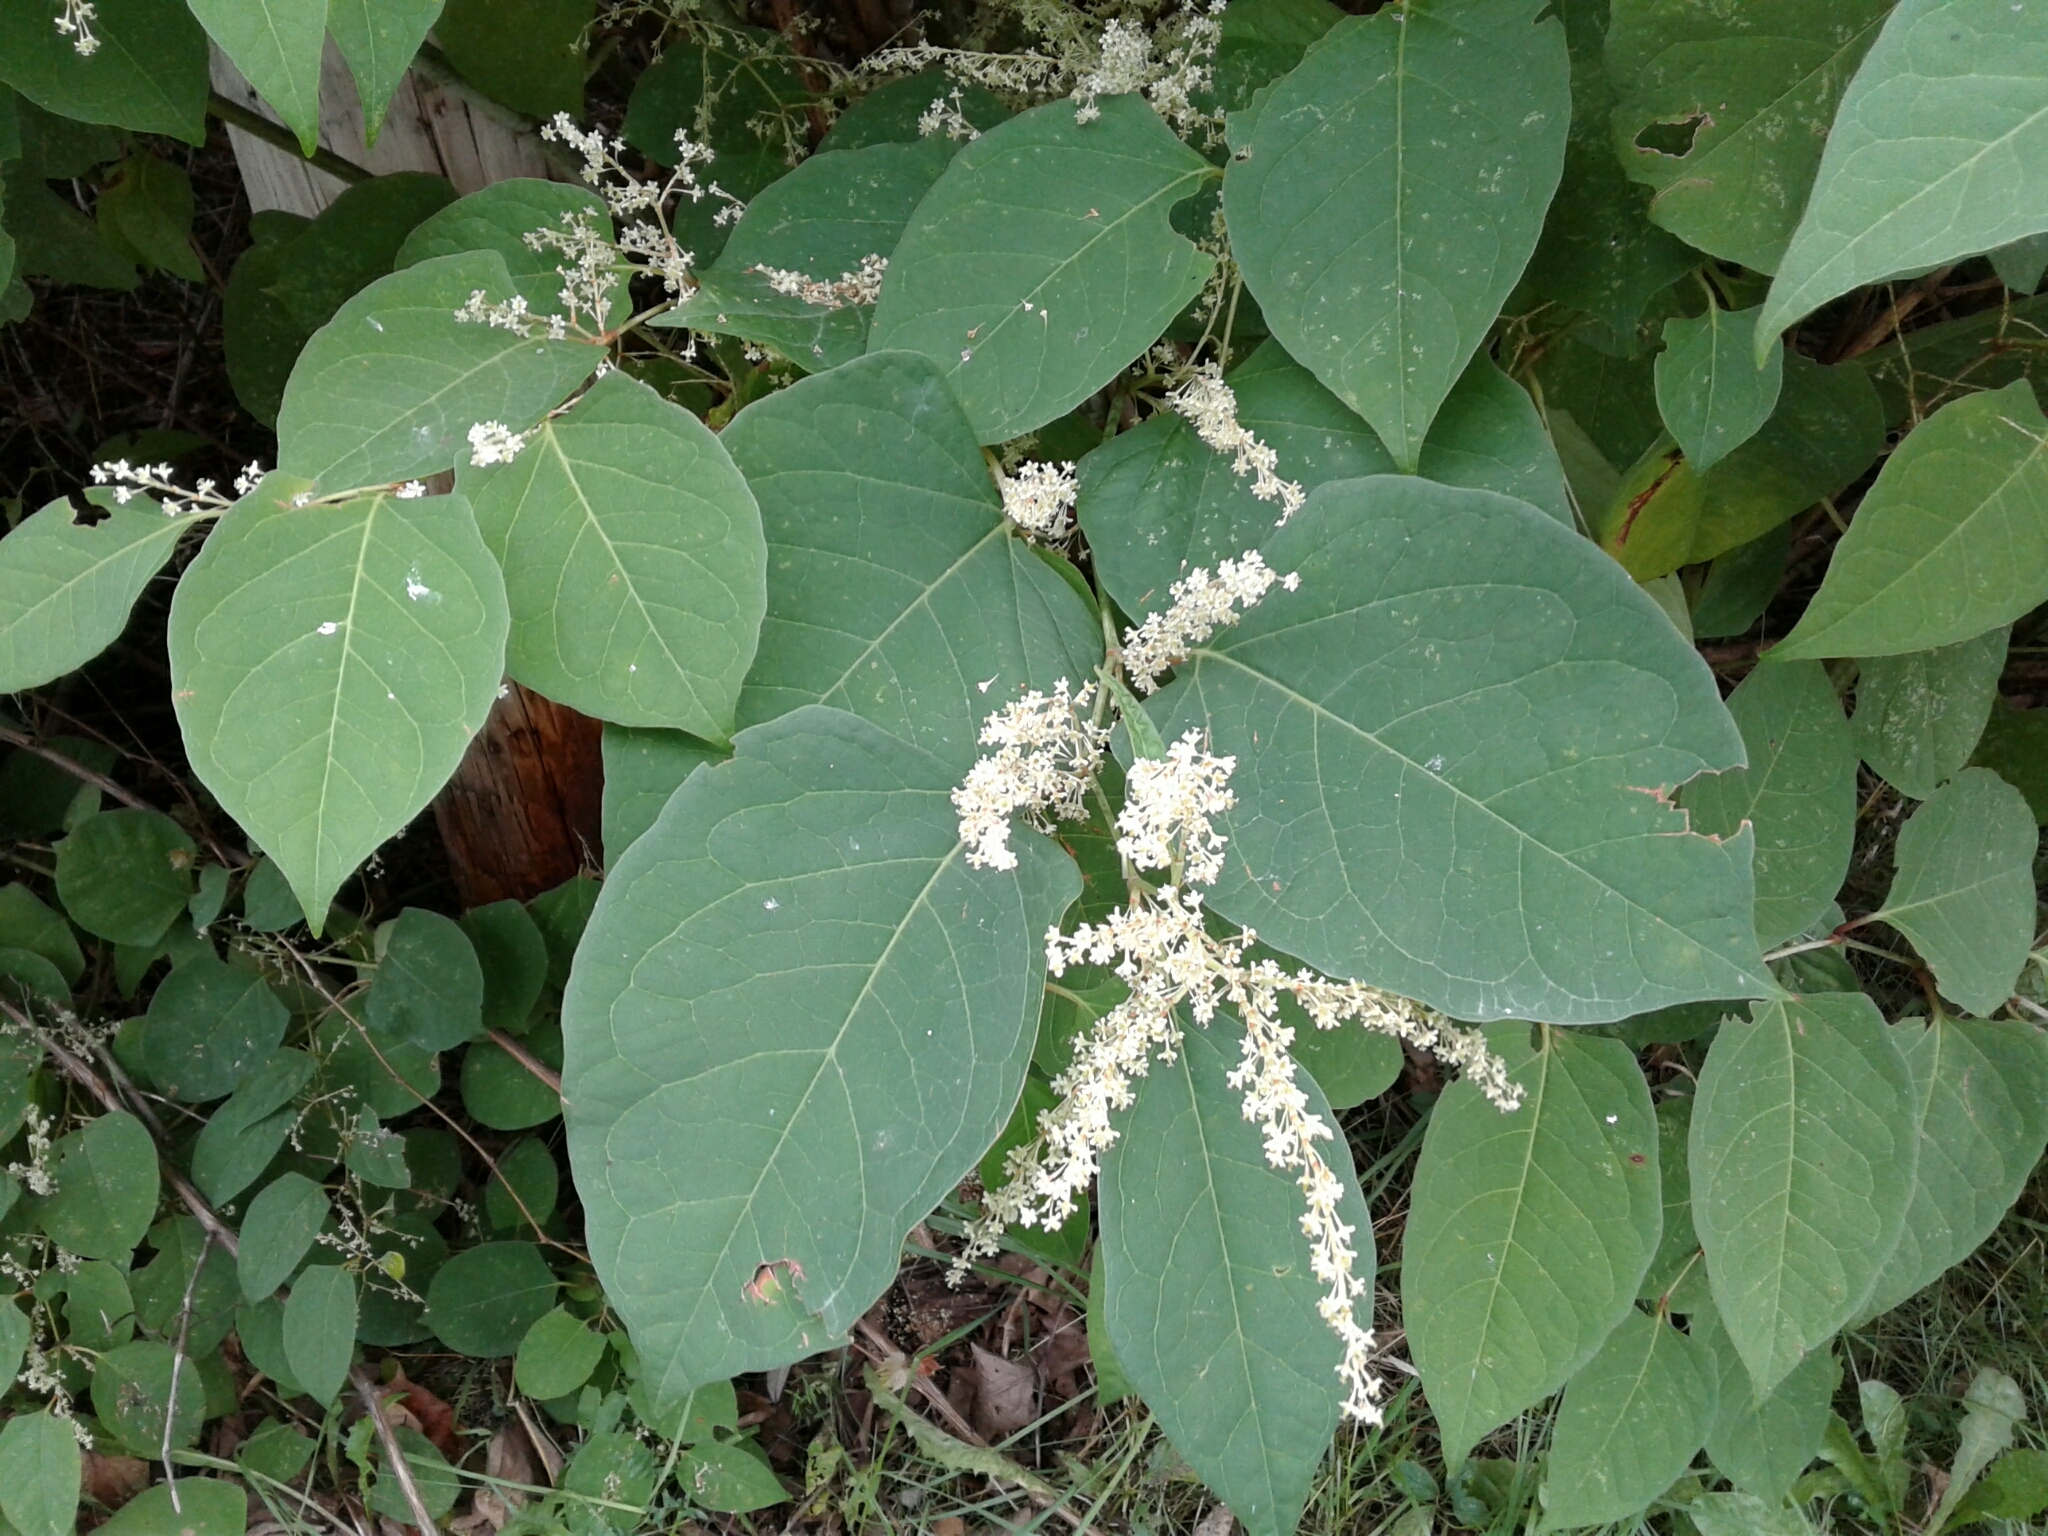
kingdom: Plantae
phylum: Tracheophyta
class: Magnoliopsida
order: Caryophyllales
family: Polygonaceae
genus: Reynoutria
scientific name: Reynoutria japonica
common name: Japanese knotweed
